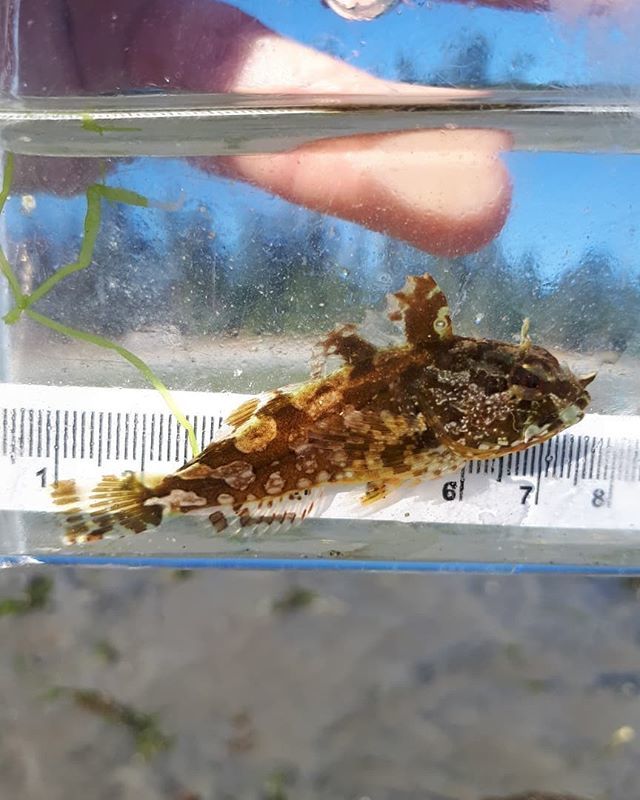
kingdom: Animalia
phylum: Chordata
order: Scorpaeniformes
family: Cottidae
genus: Scorpaenichthys
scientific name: Scorpaenichthys marmoratus
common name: Cabezon
